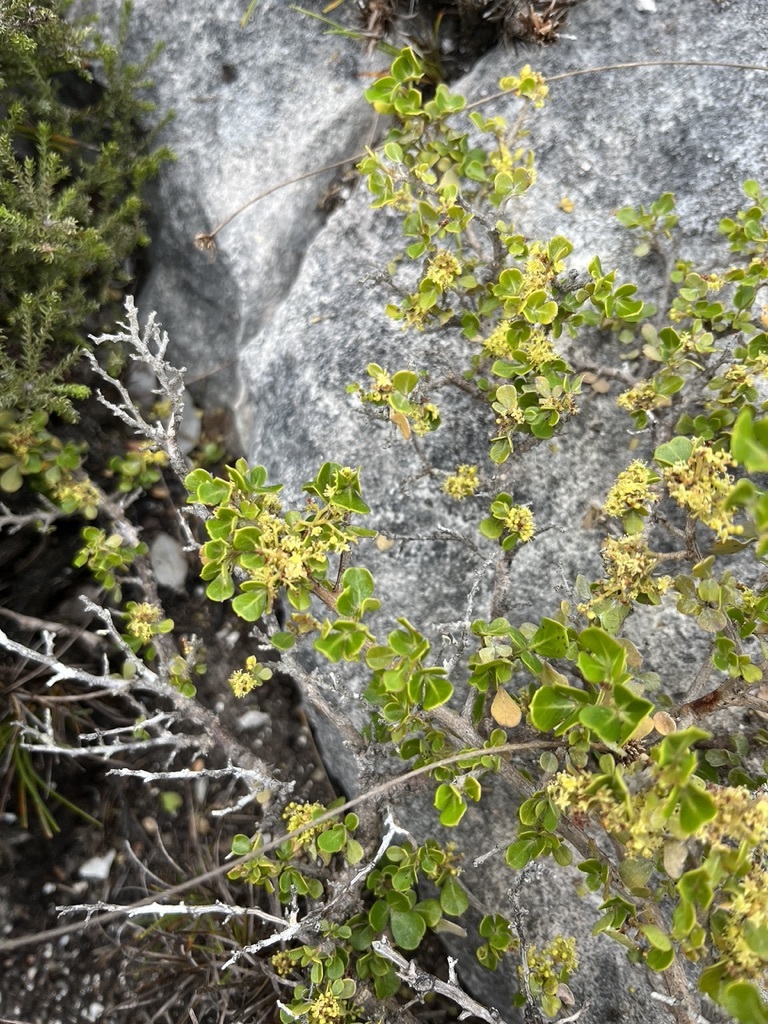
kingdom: Plantae
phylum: Tracheophyta
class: Magnoliopsida
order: Sapindales
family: Anacardiaceae
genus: Searsia
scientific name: Searsia glauca
